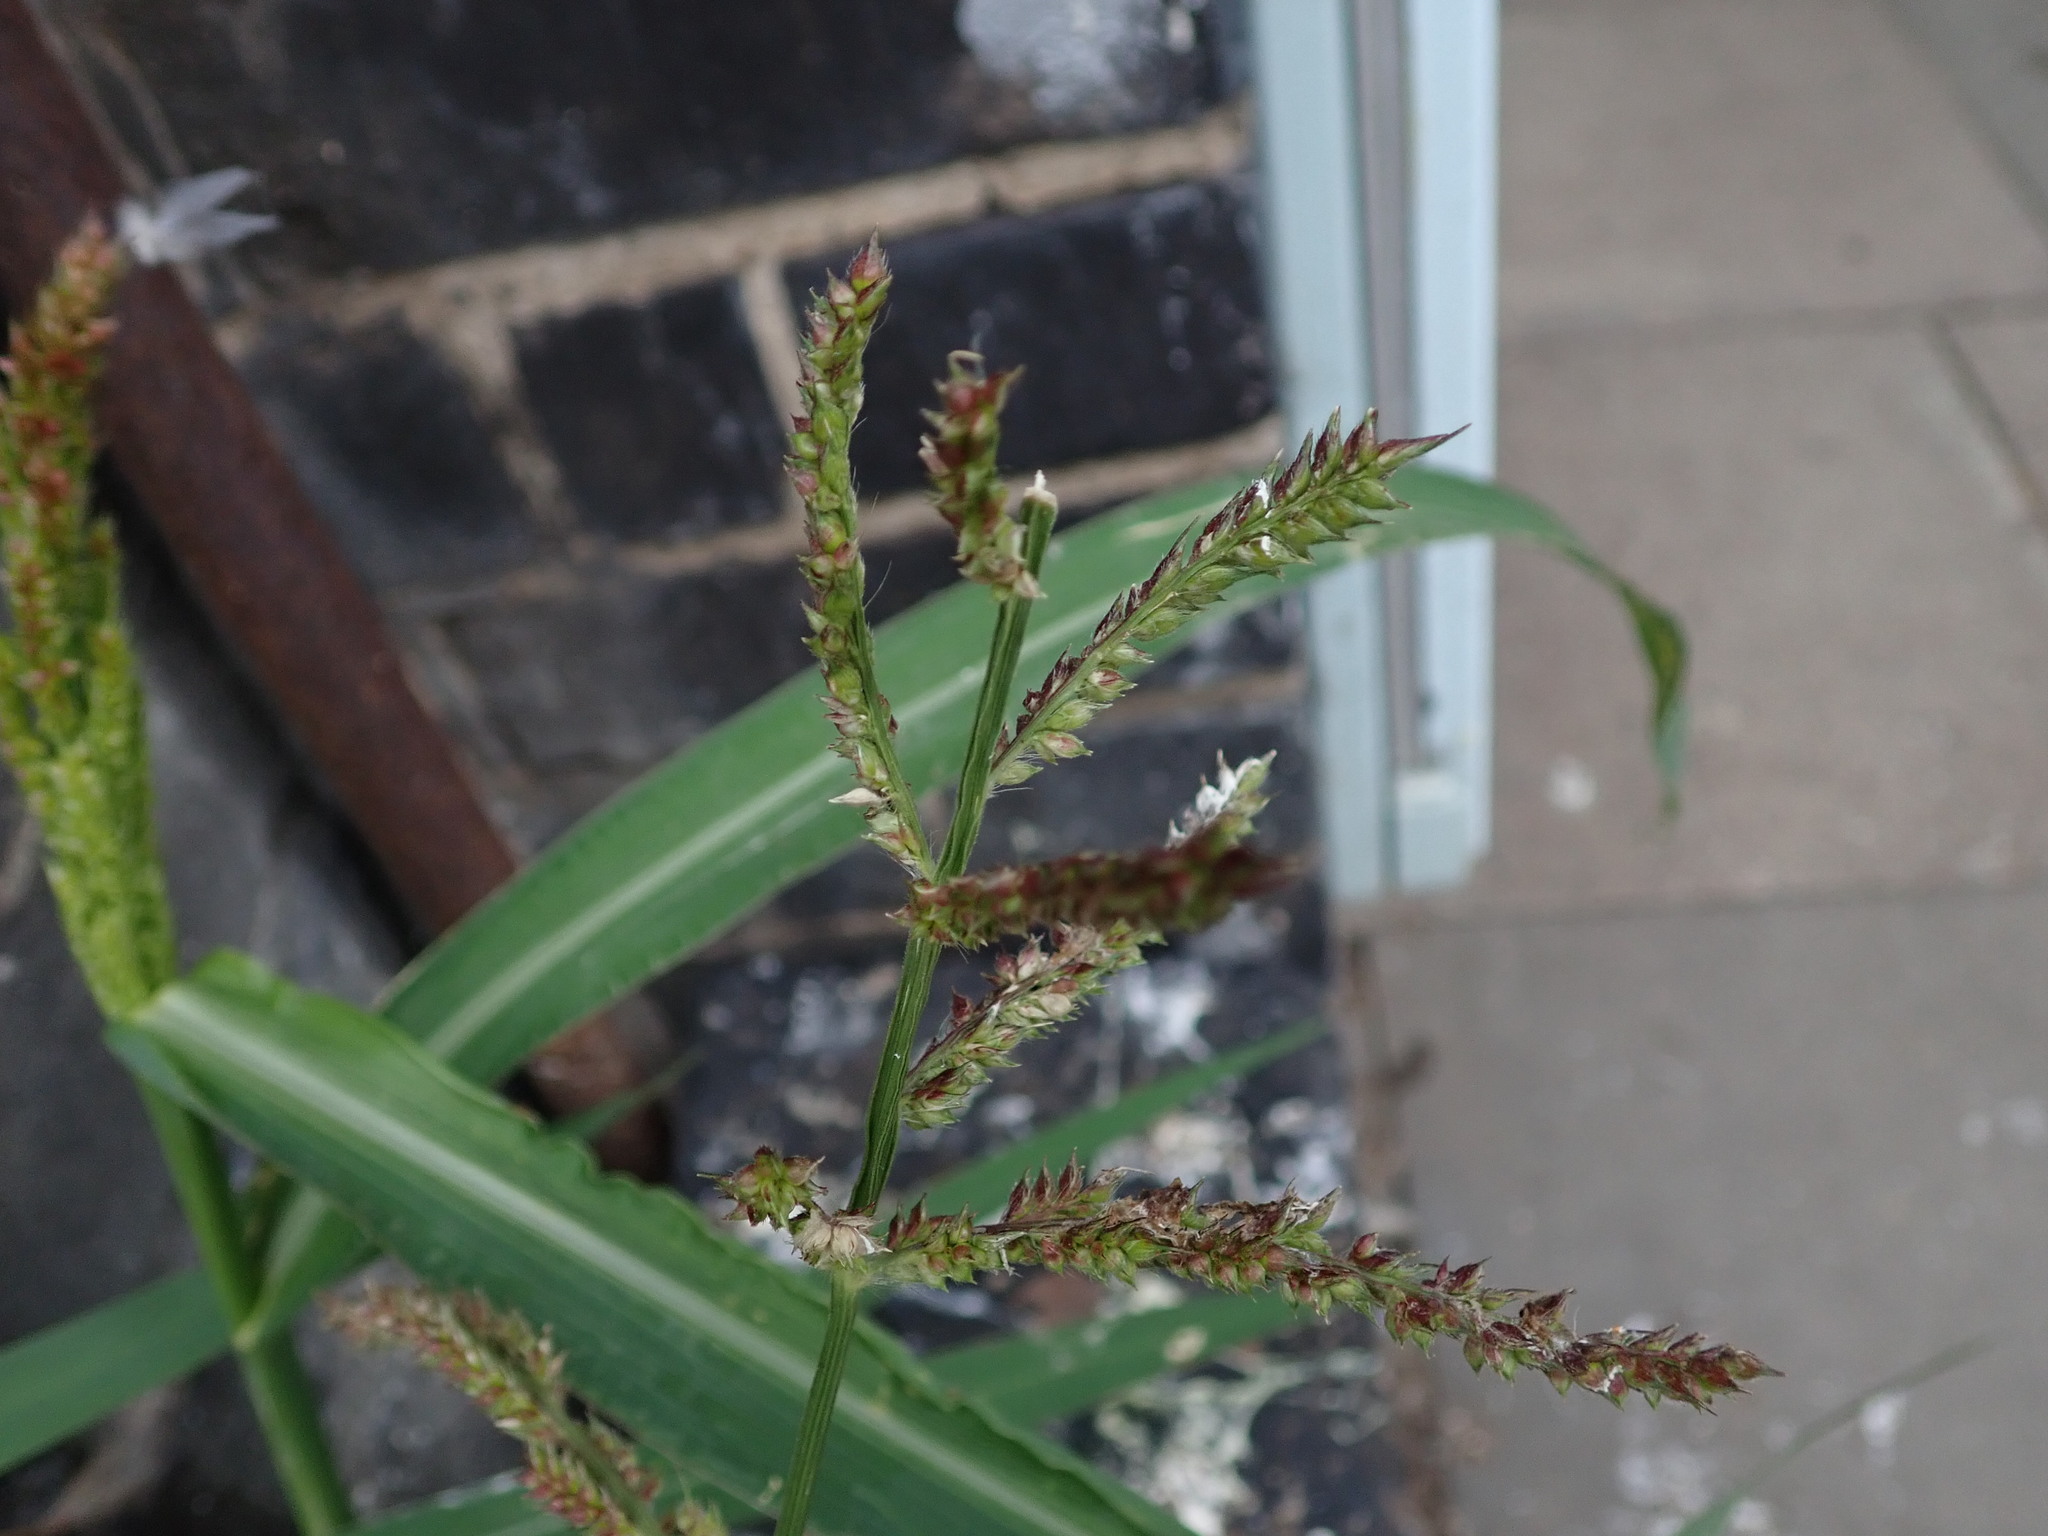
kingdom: Plantae
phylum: Tracheophyta
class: Liliopsida
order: Poales
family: Poaceae
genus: Echinochloa
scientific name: Echinochloa crus-galli
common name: Cockspur
